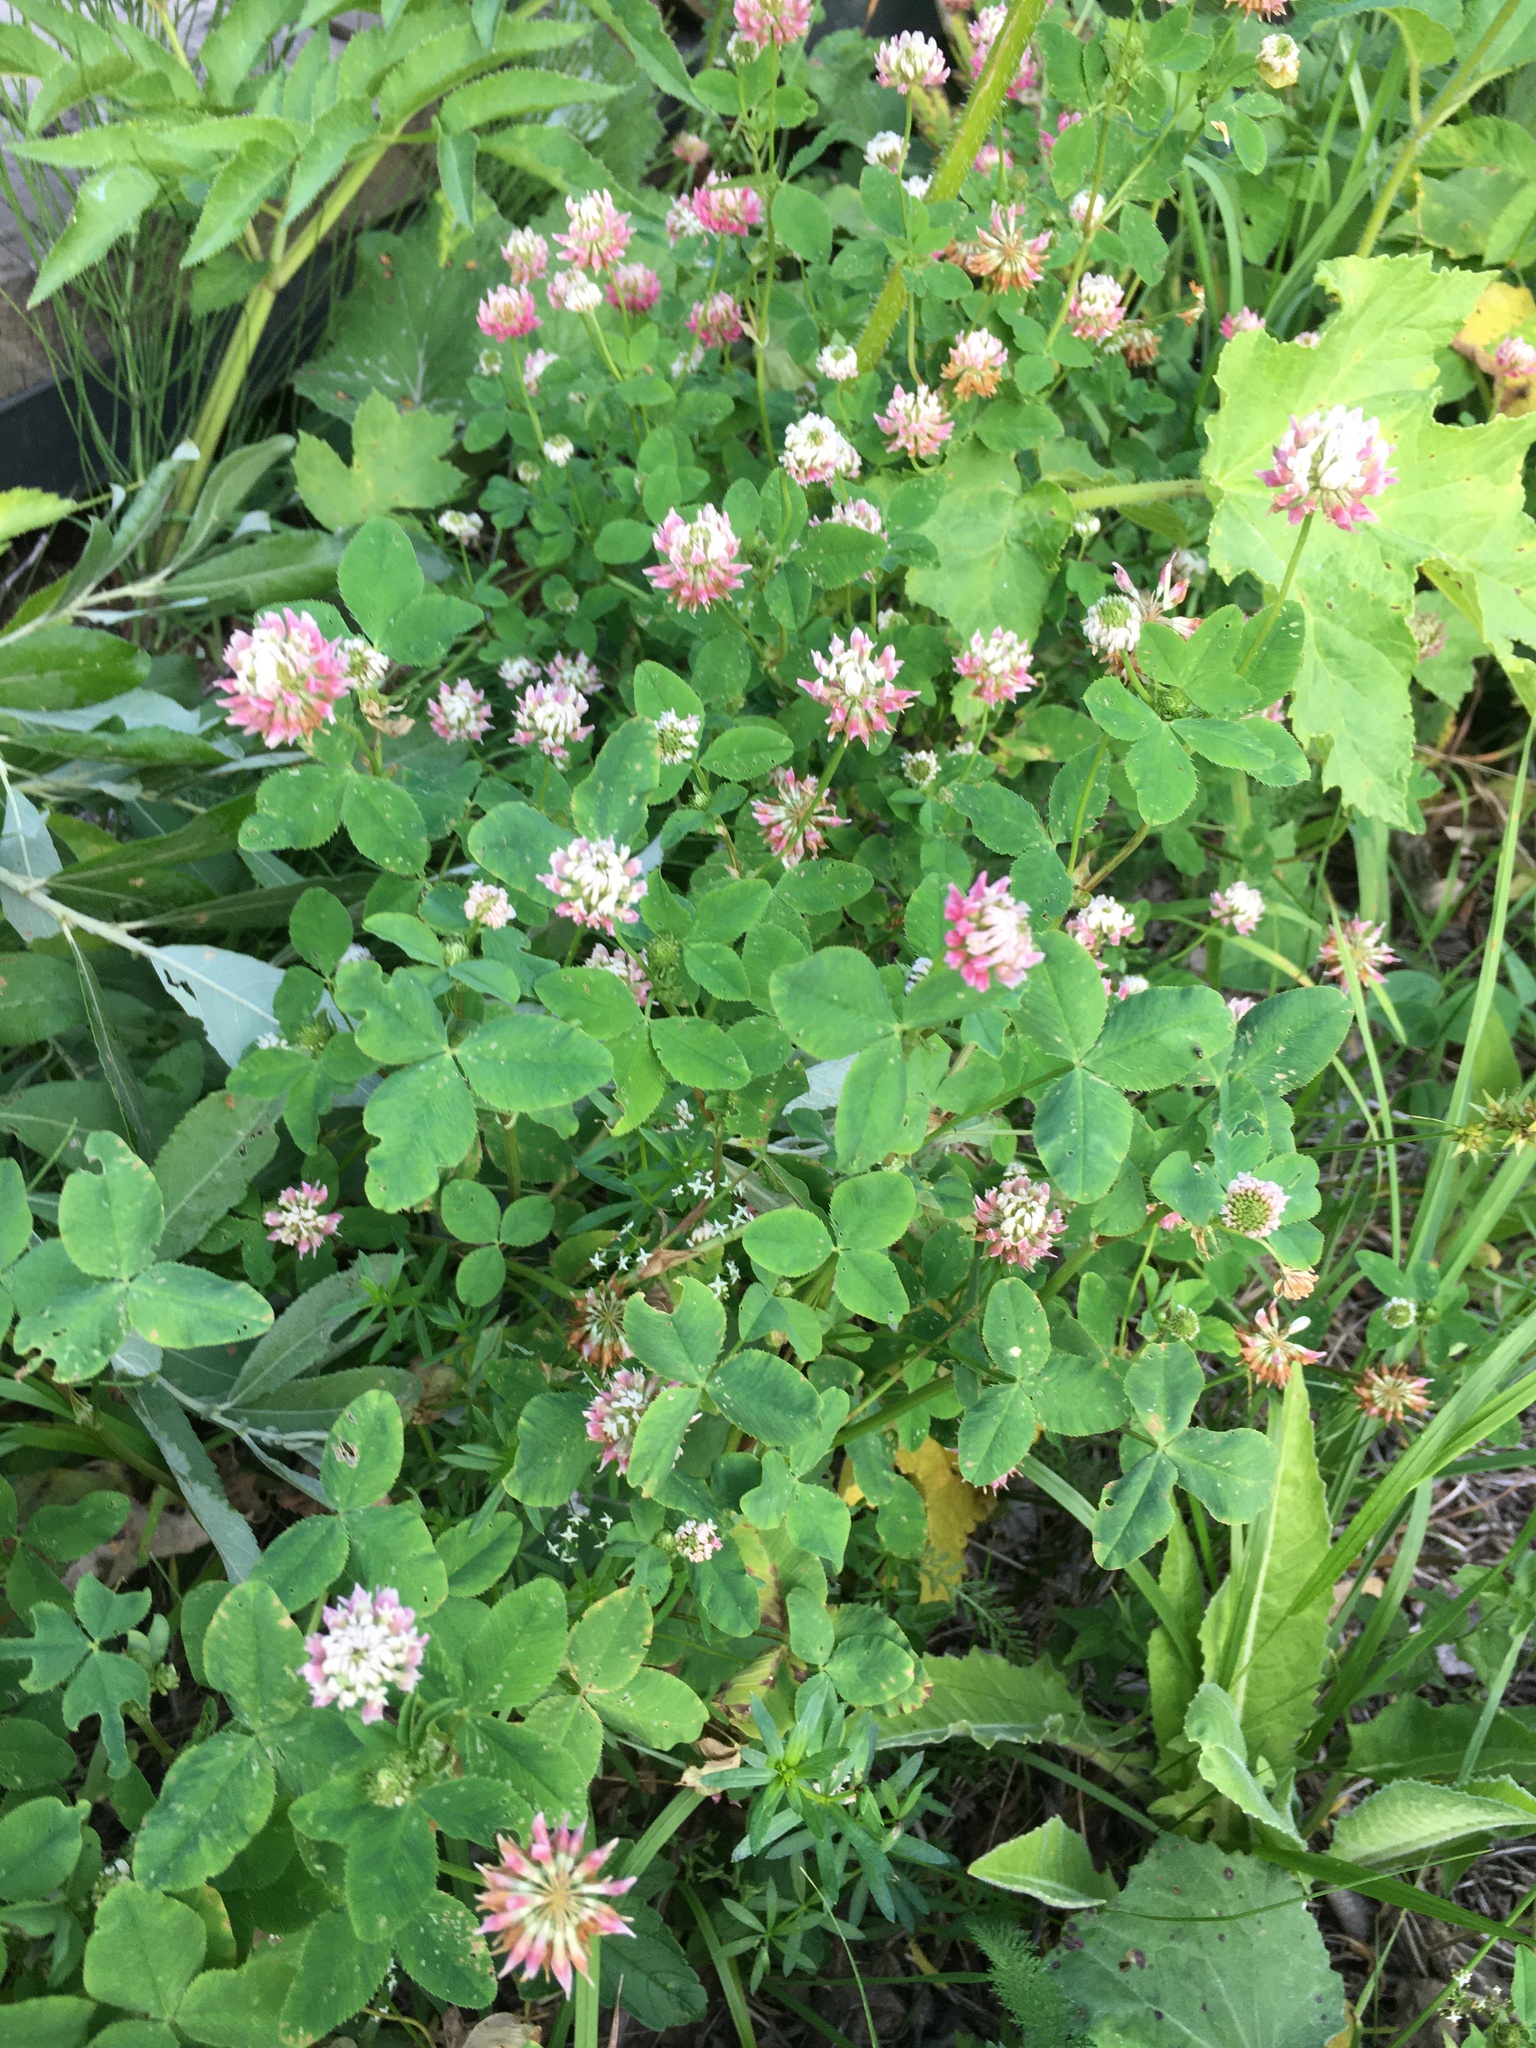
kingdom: Plantae
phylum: Tracheophyta
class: Magnoliopsida
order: Fabales
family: Fabaceae
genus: Trifolium
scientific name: Trifolium hybridum
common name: Alsike clover
